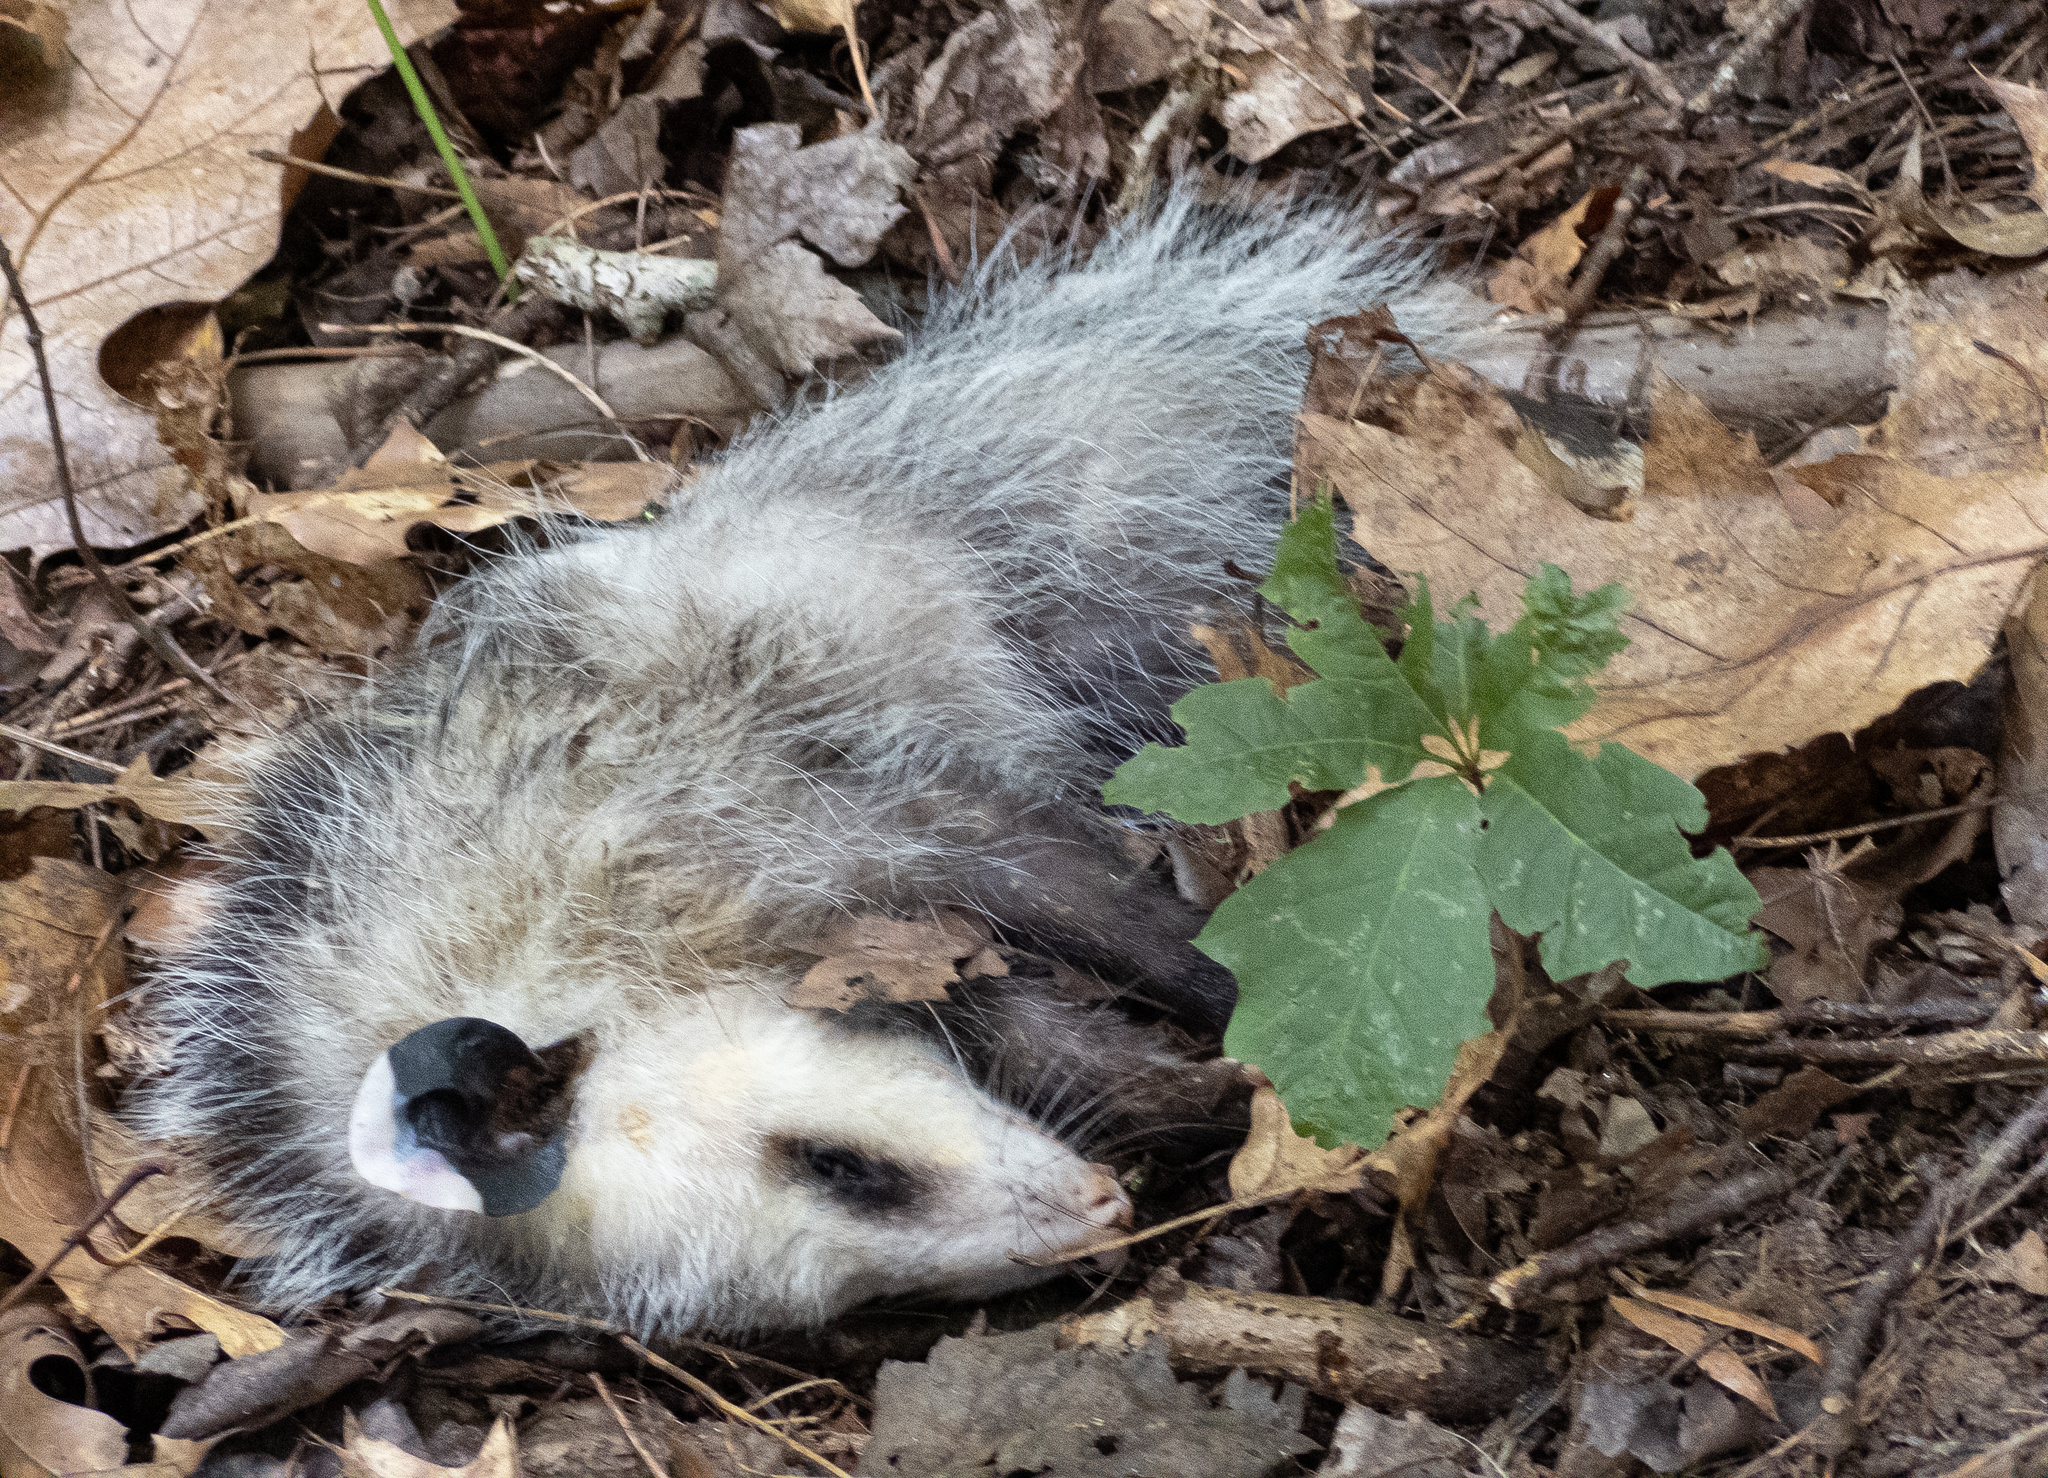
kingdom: Animalia
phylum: Chordata
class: Mammalia
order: Didelphimorphia
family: Didelphidae
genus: Didelphis
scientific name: Didelphis virginiana
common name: Virginia opossum
